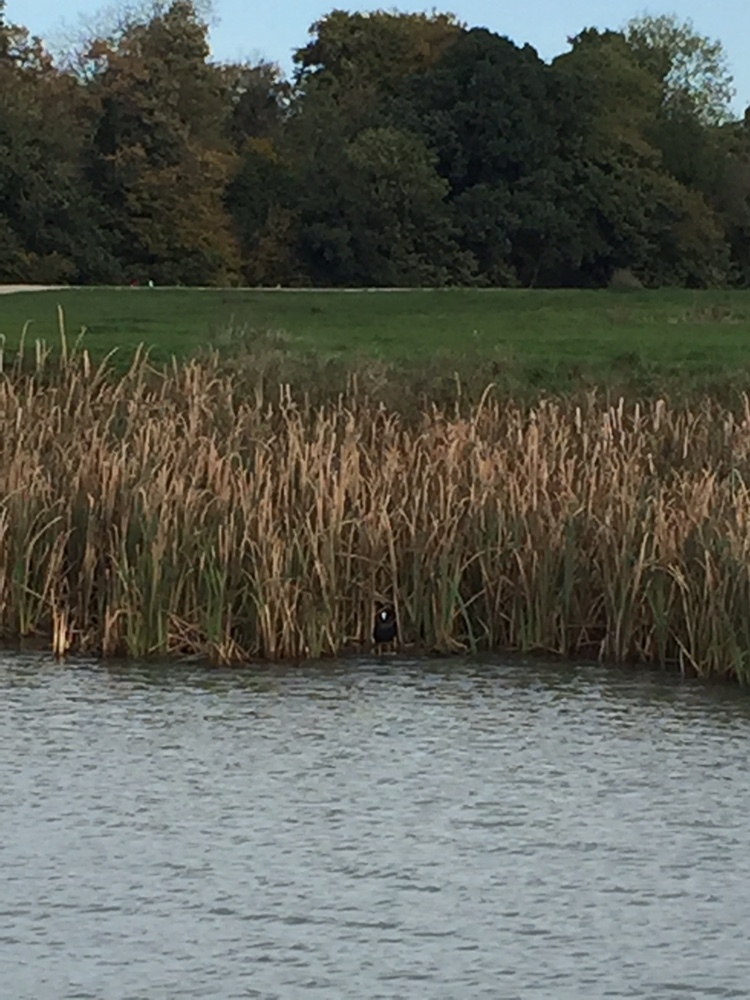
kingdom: Animalia
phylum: Chordata
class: Aves
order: Gruiformes
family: Rallidae
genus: Fulica
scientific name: Fulica atra
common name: Eurasian coot
